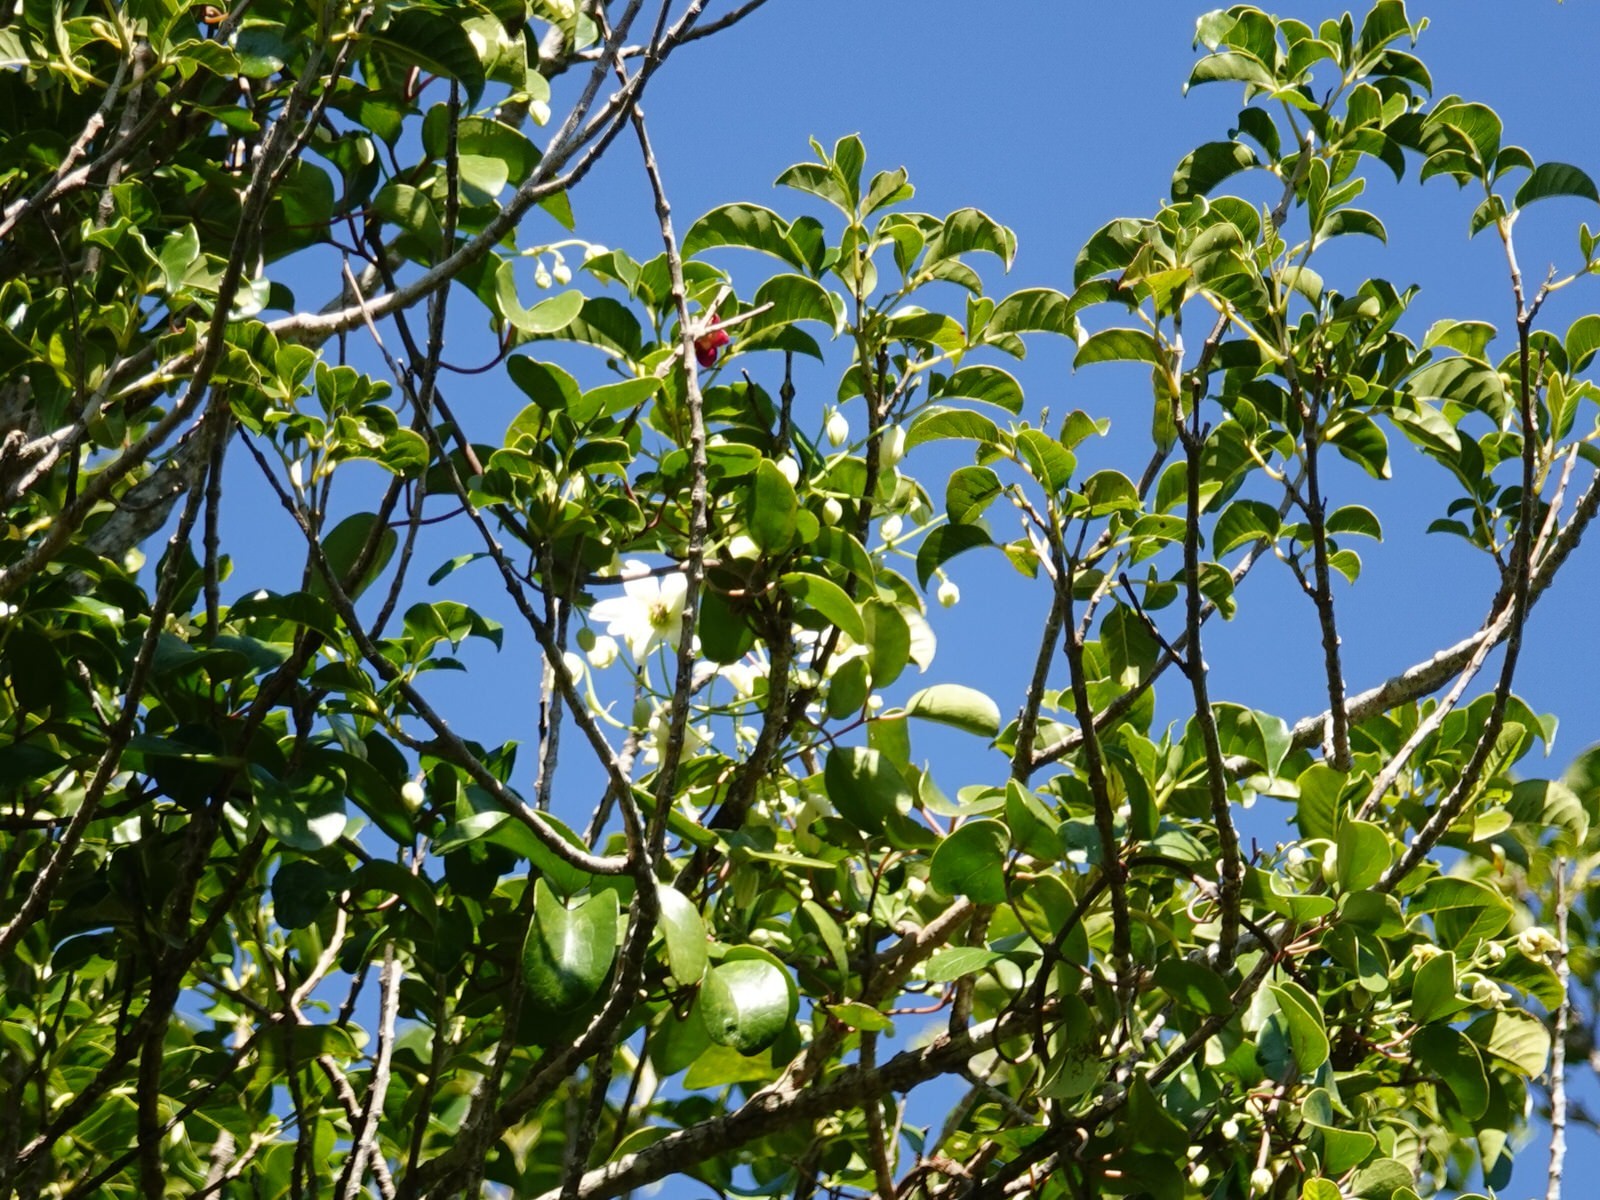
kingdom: Plantae
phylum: Tracheophyta
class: Magnoliopsida
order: Ranunculales
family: Ranunculaceae
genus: Clematis
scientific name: Clematis paniculata
